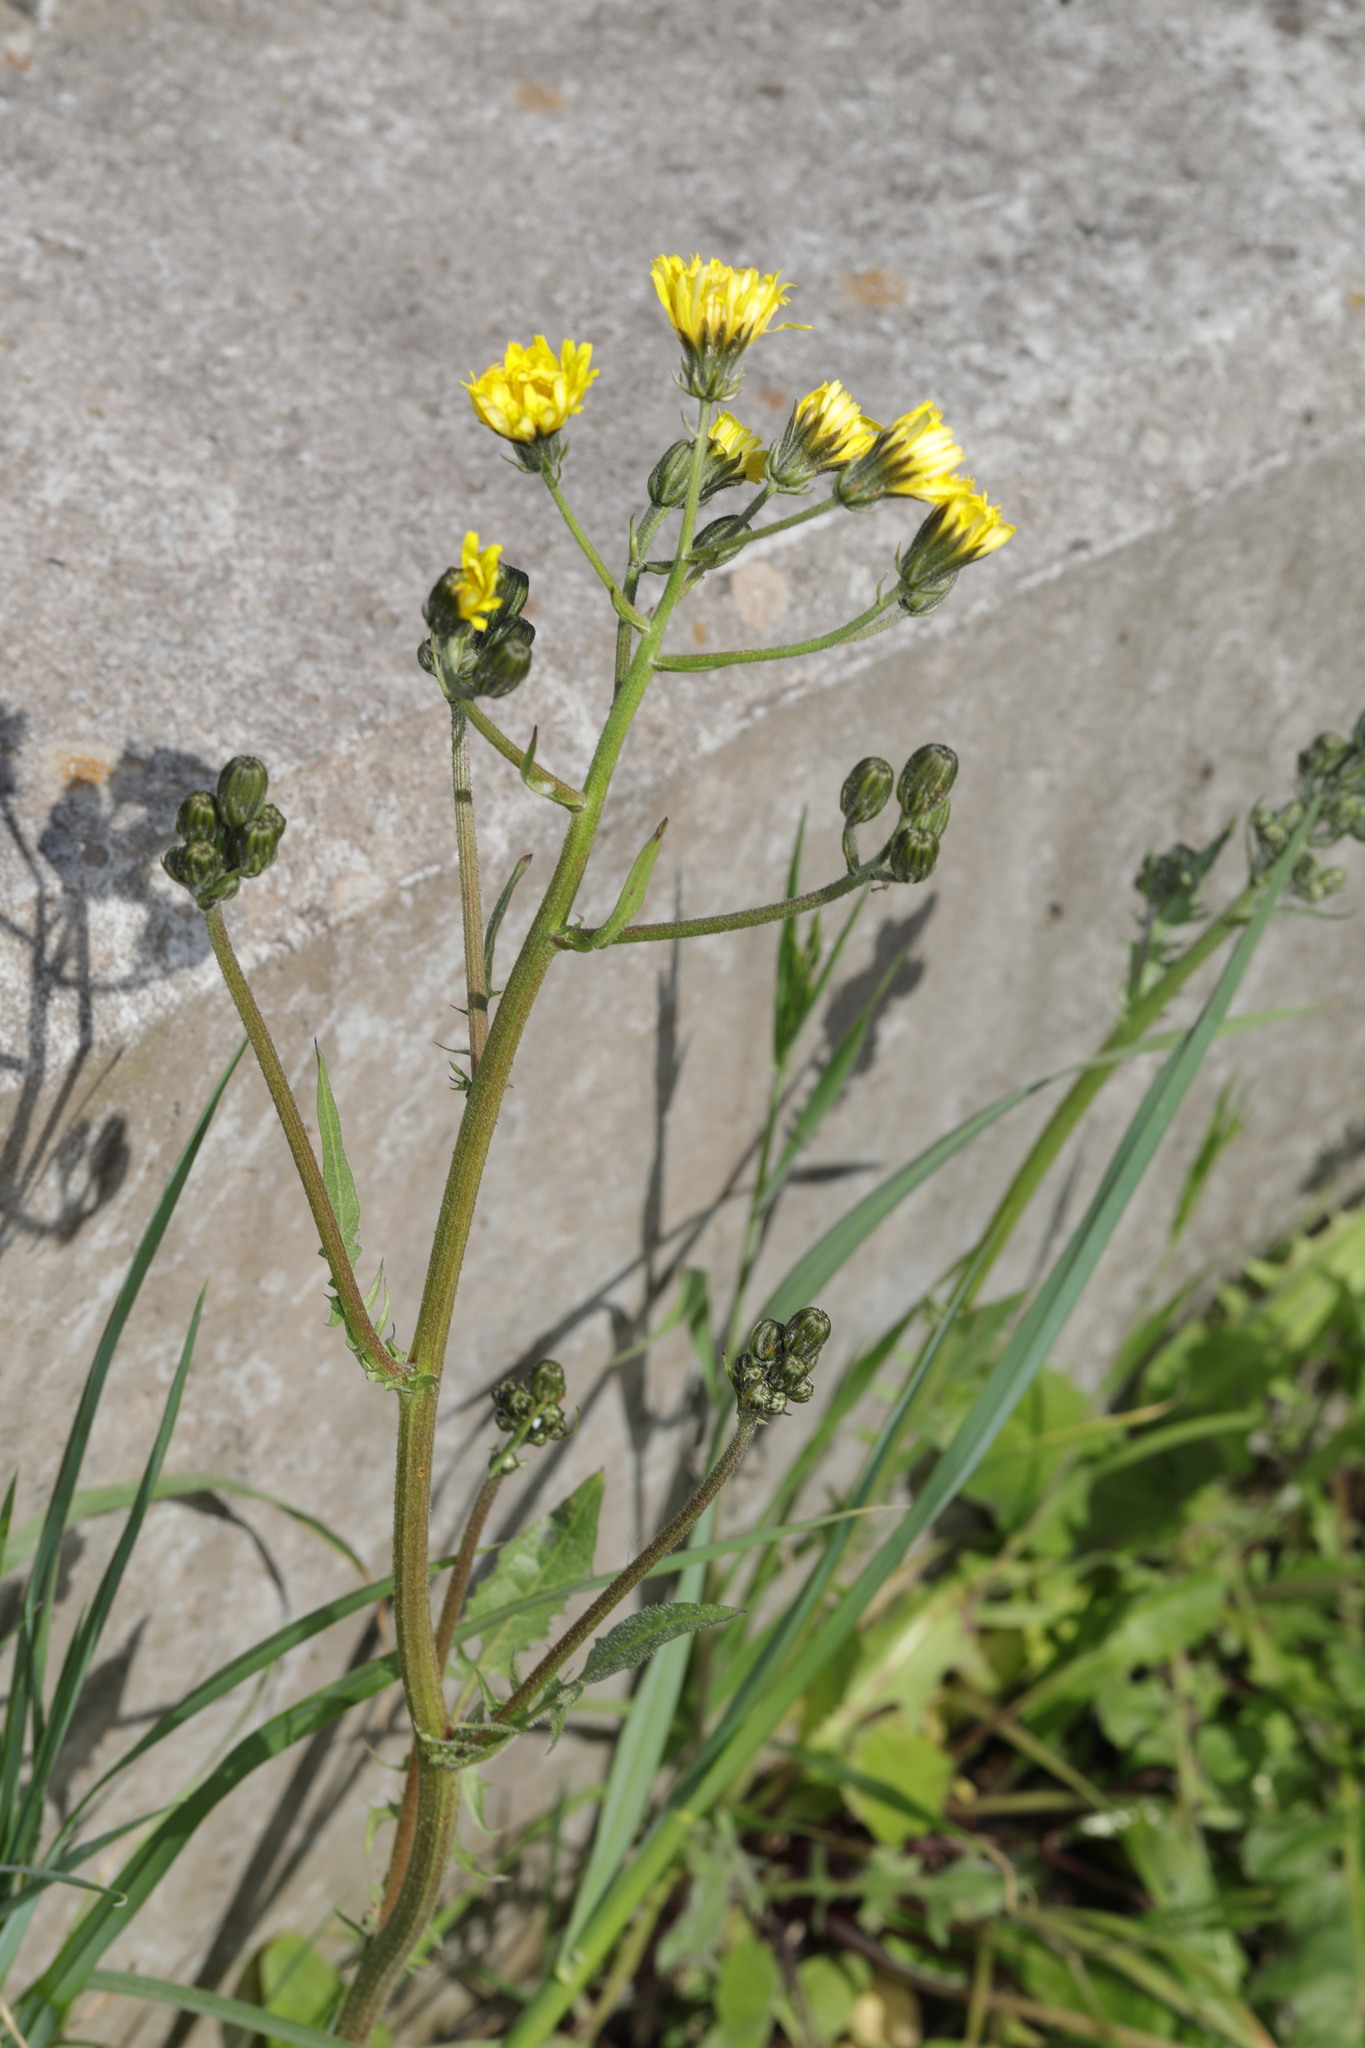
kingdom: Plantae
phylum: Tracheophyta
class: Magnoliopsida
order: Asterales
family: Asteraceae
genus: Crepis
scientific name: Crepis capillaris
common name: Smooth hawksbeard
